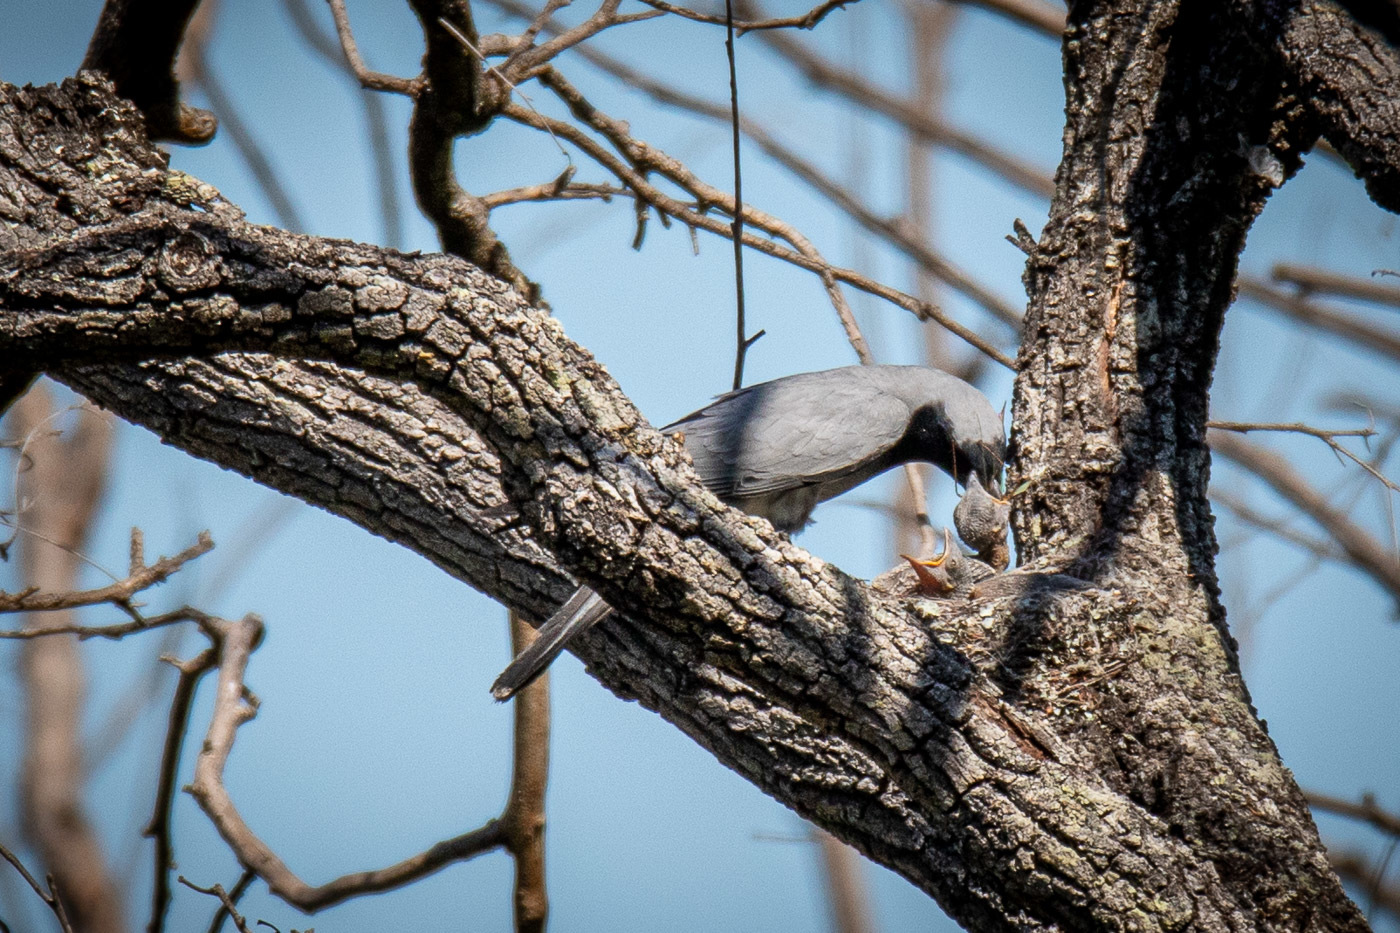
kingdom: Animalia
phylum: Chordata
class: Aves
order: Passeriformes
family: Campephagidae
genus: Coracina
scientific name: Coracina novaehollandiae
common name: Black-faced cuckooshrike
